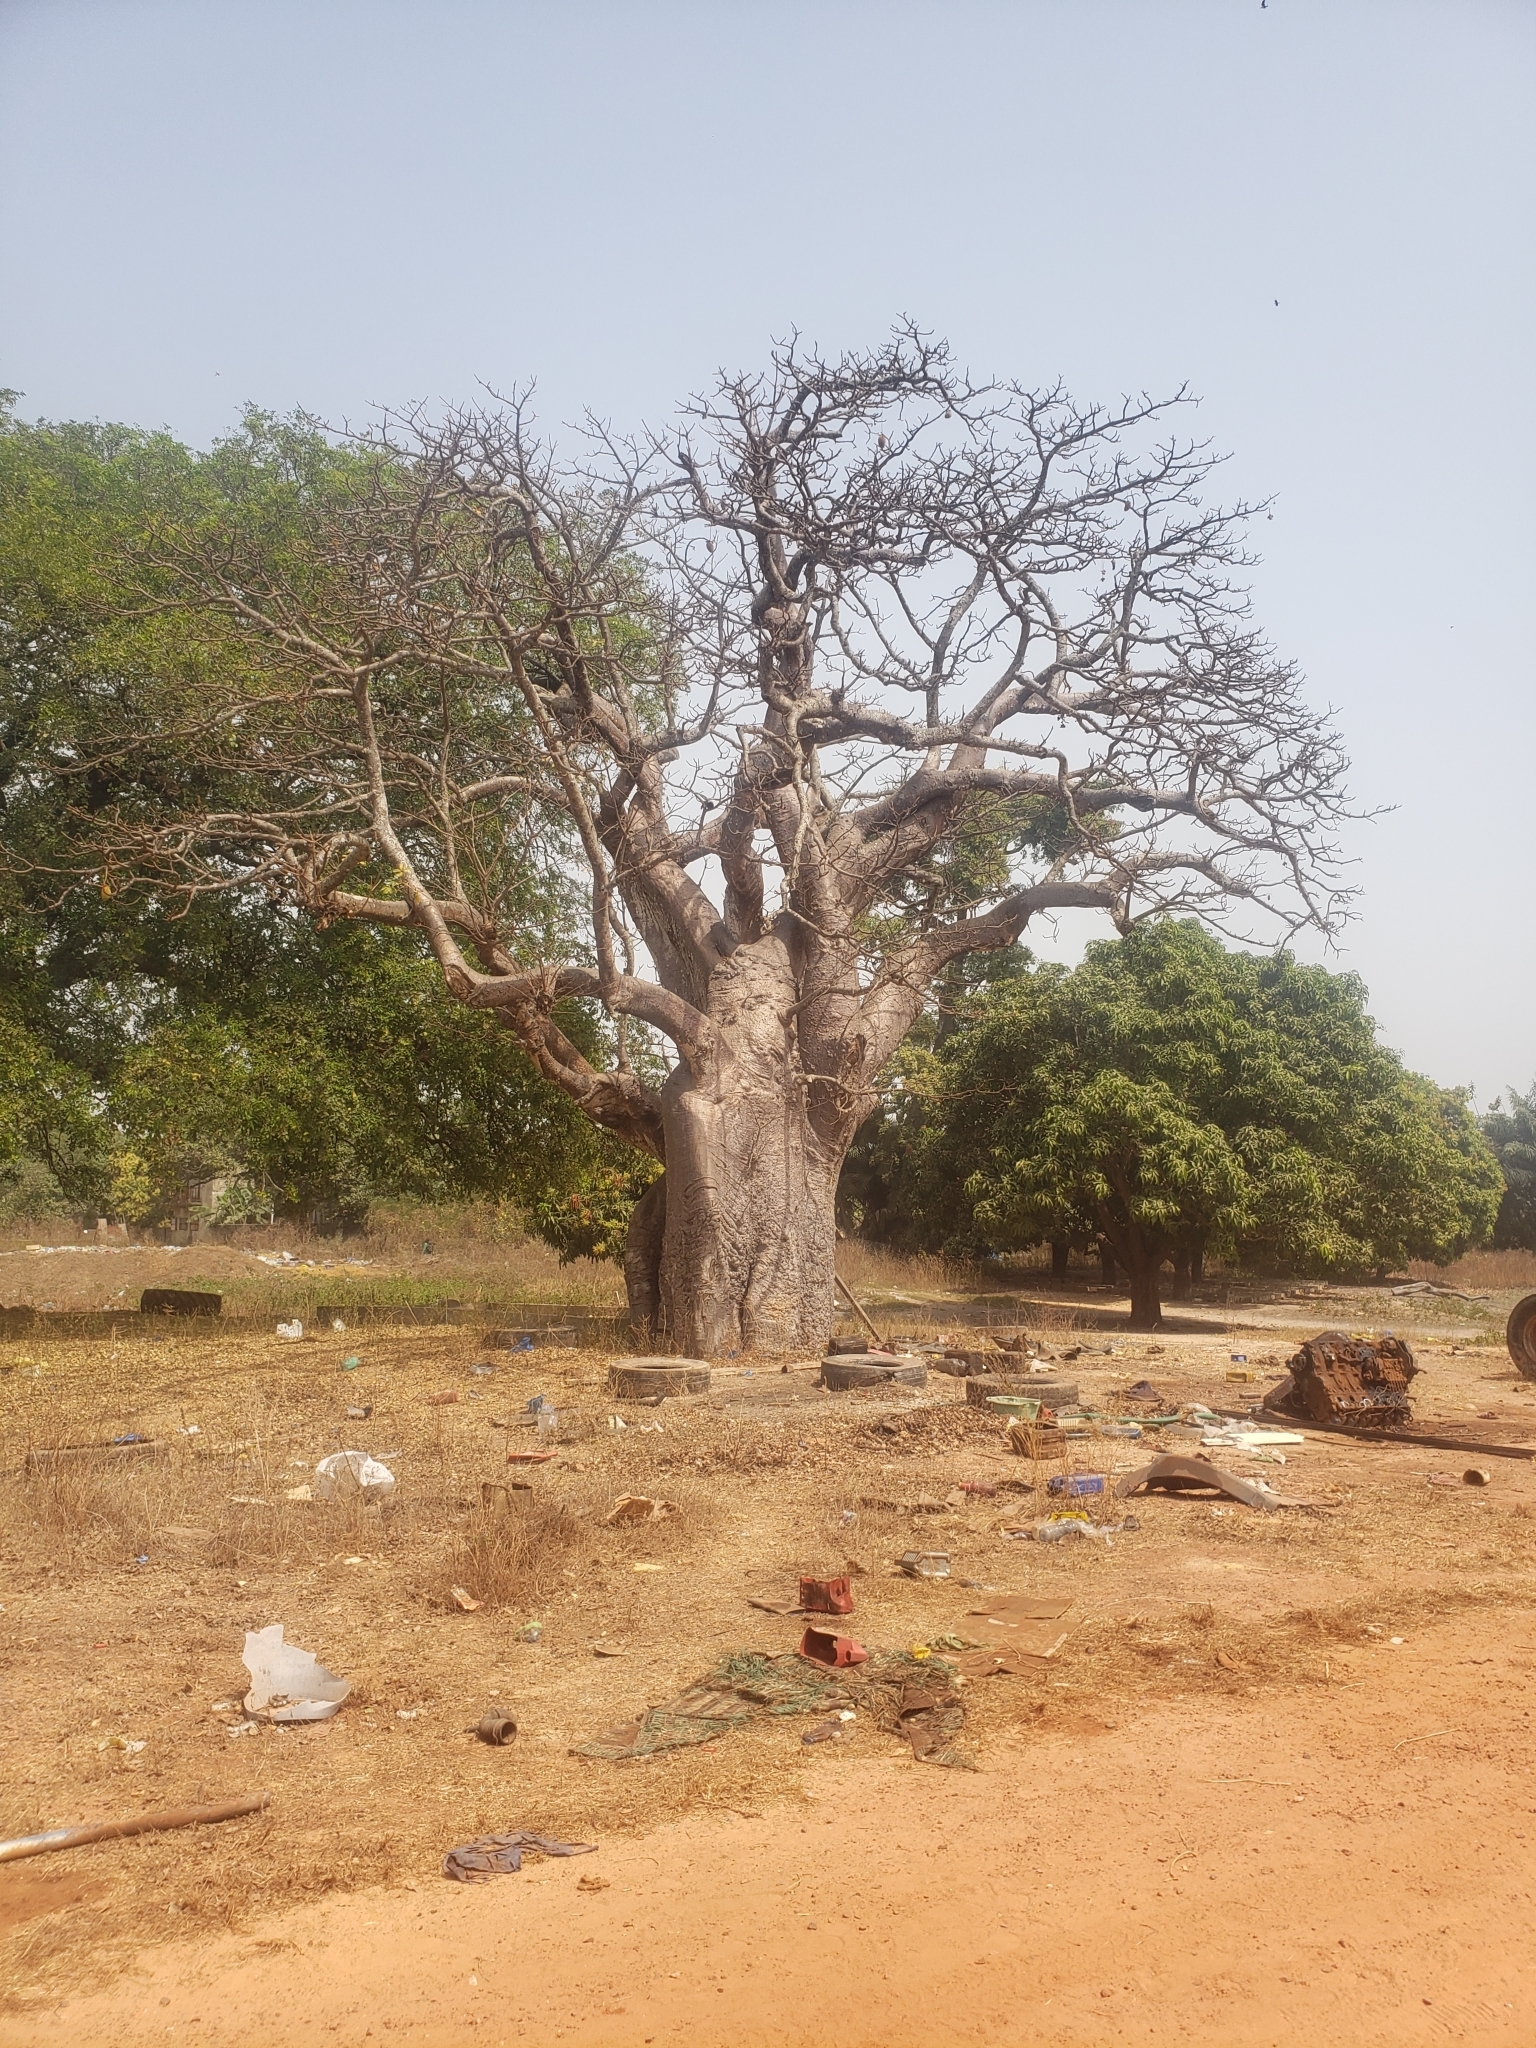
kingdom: Plantae
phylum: Tracheophyta
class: Magnoliopsida
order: Malvales
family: Malvaceae
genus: Adansonia
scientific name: Adansonia digitata
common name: Dead-rat-tree
